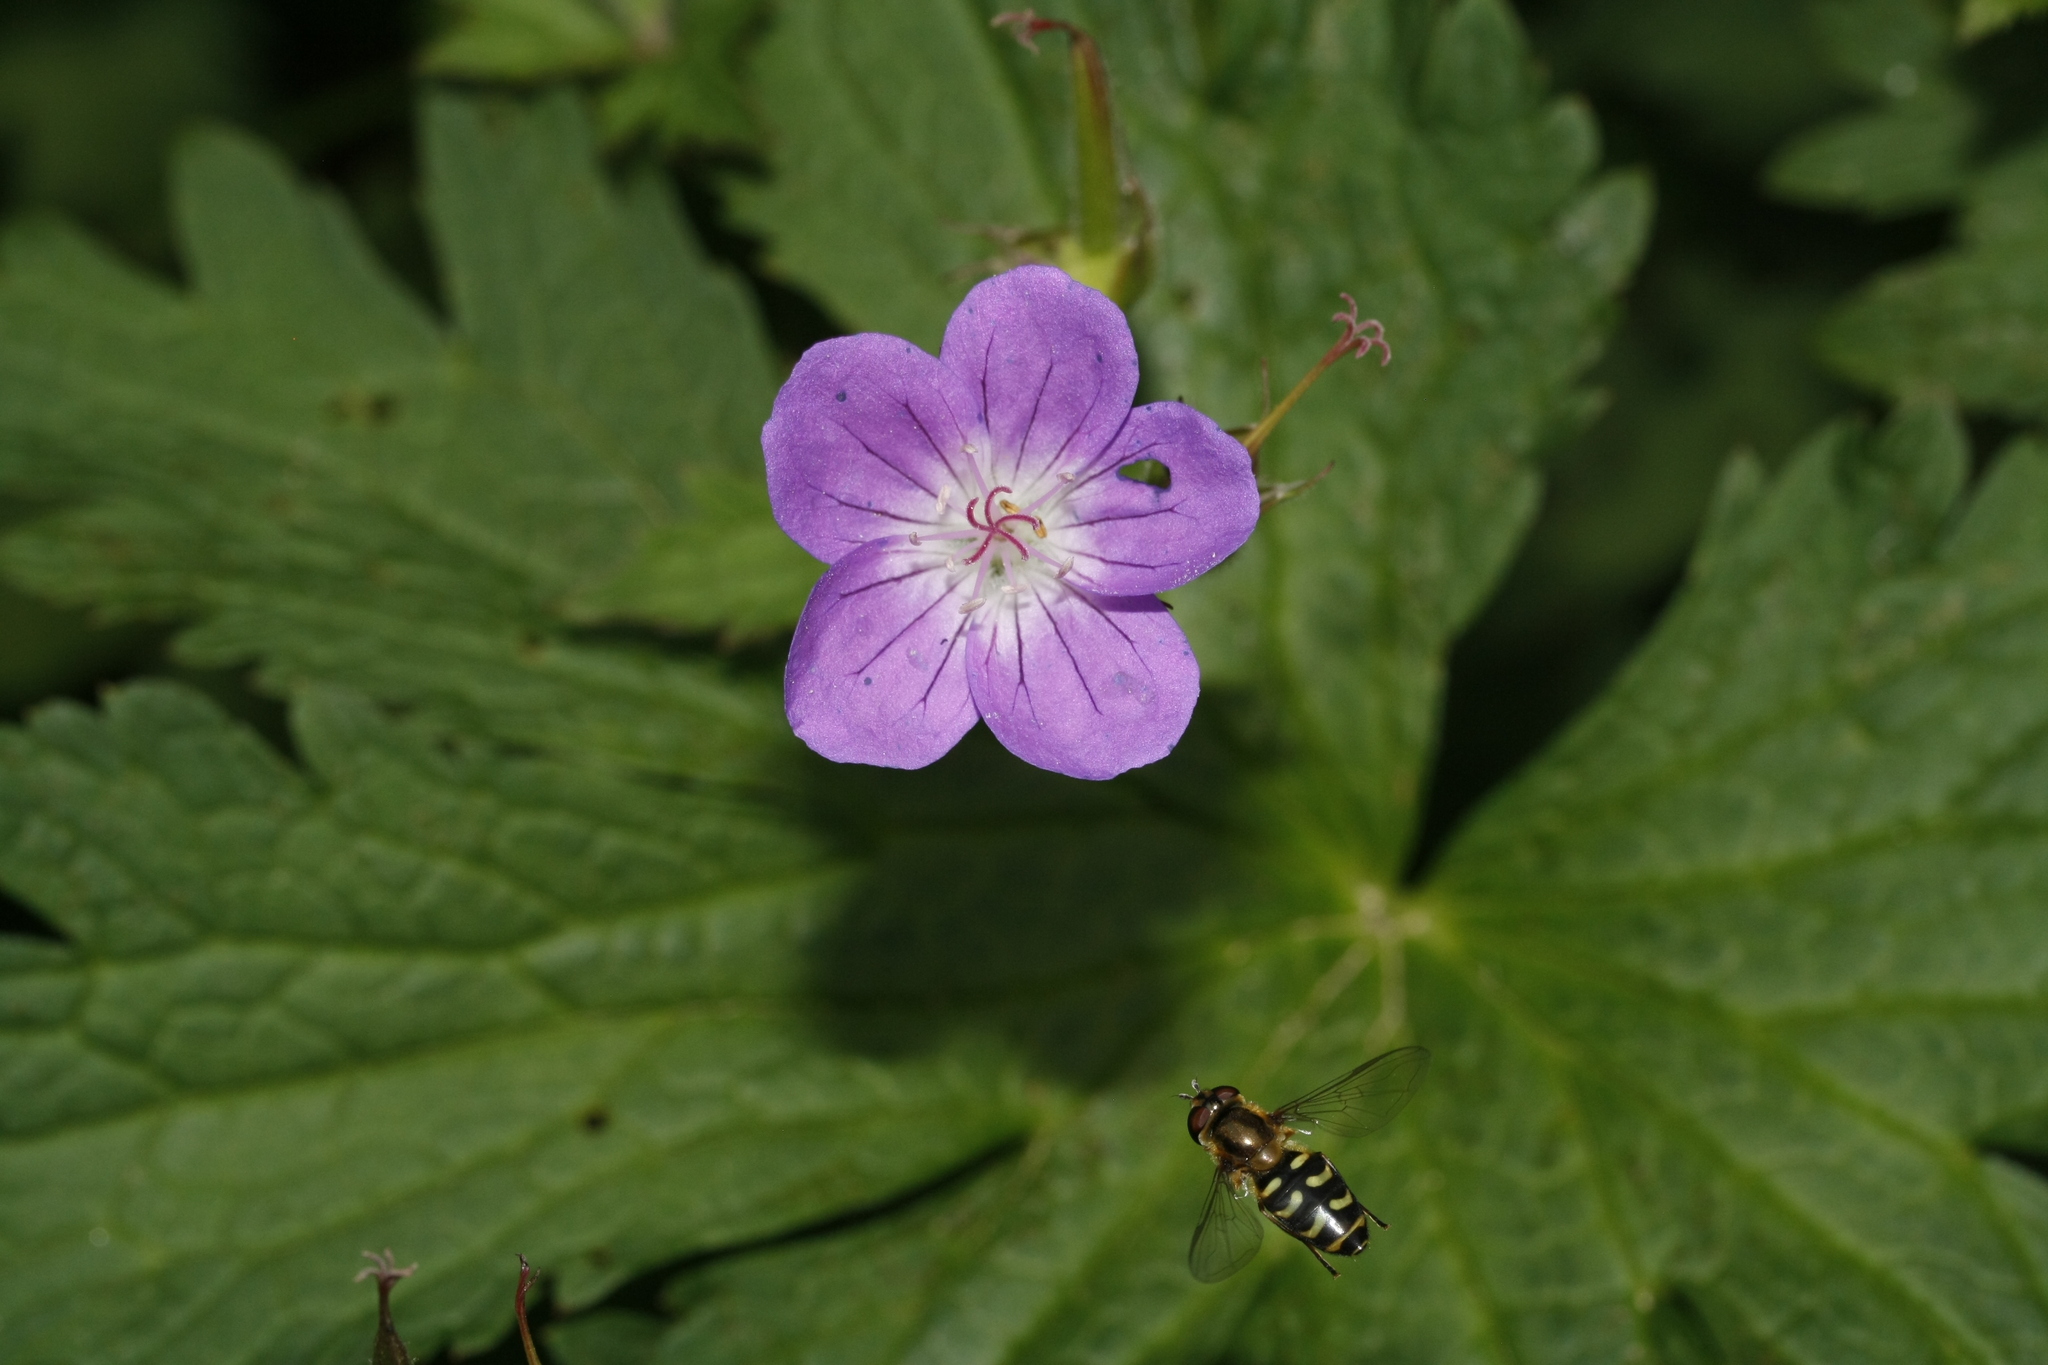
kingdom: Plantae
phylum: Tracheophyta
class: Magnoliopsida
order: Geraniales
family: Geraniaceae
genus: Geranium
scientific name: Geranium sylvaticum
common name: Wood crane's-bill
